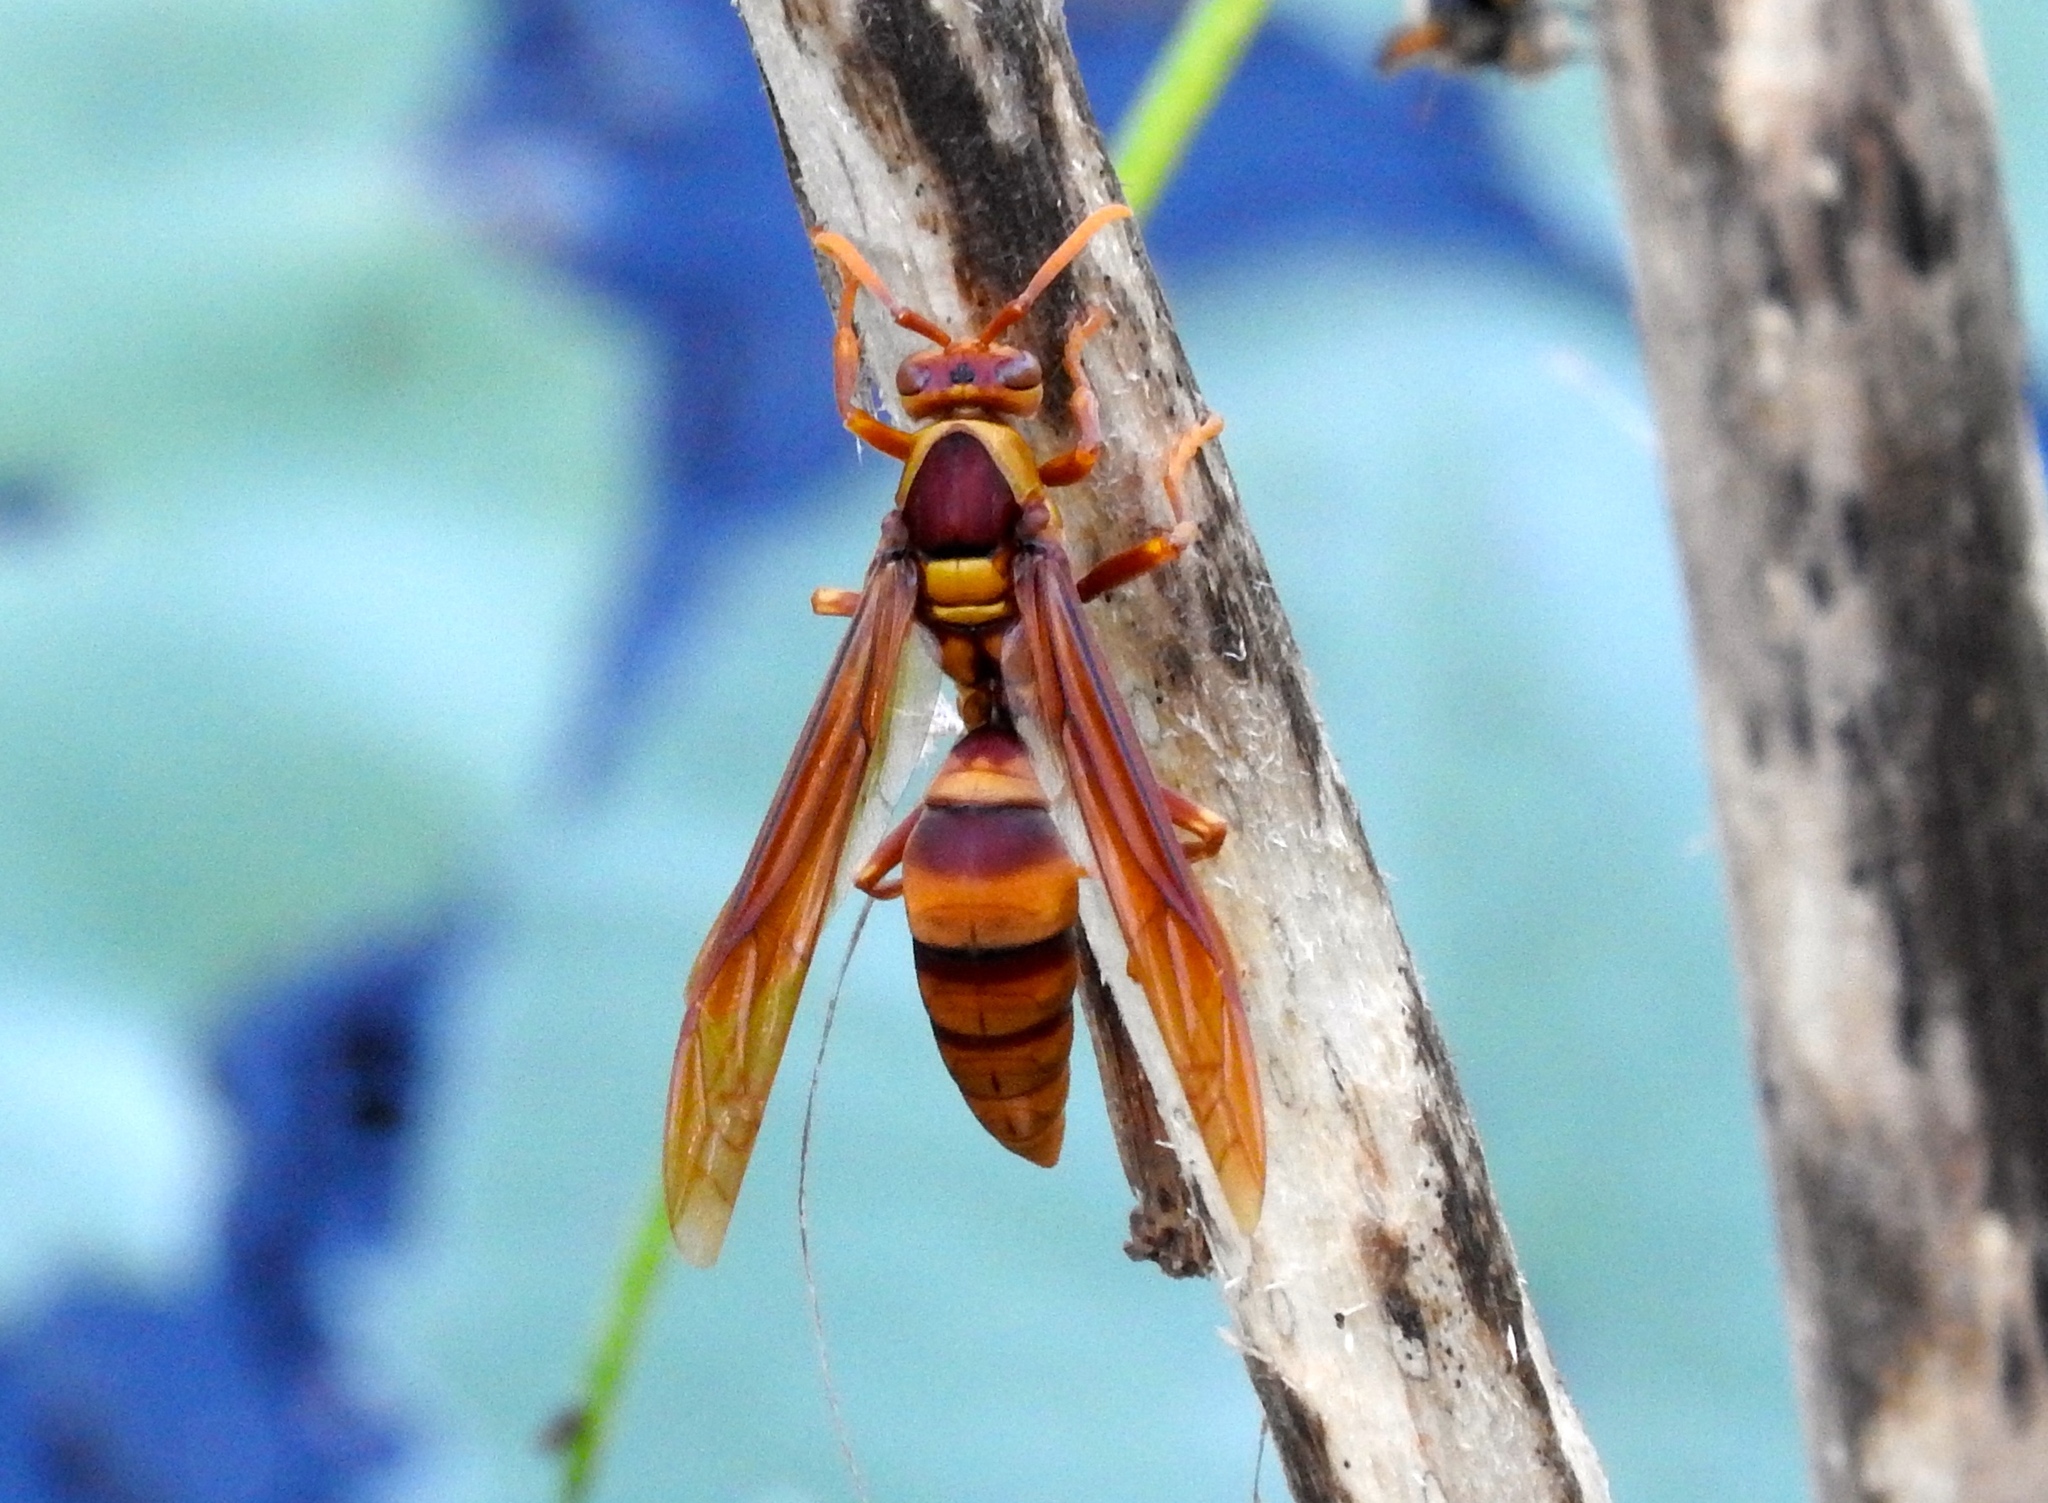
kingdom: Animalia
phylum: Arthropoda
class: Insecta
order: Hymenoptera
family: Eumenidae
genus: Polistes
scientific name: Polistes carnifex
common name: Paper wasp
